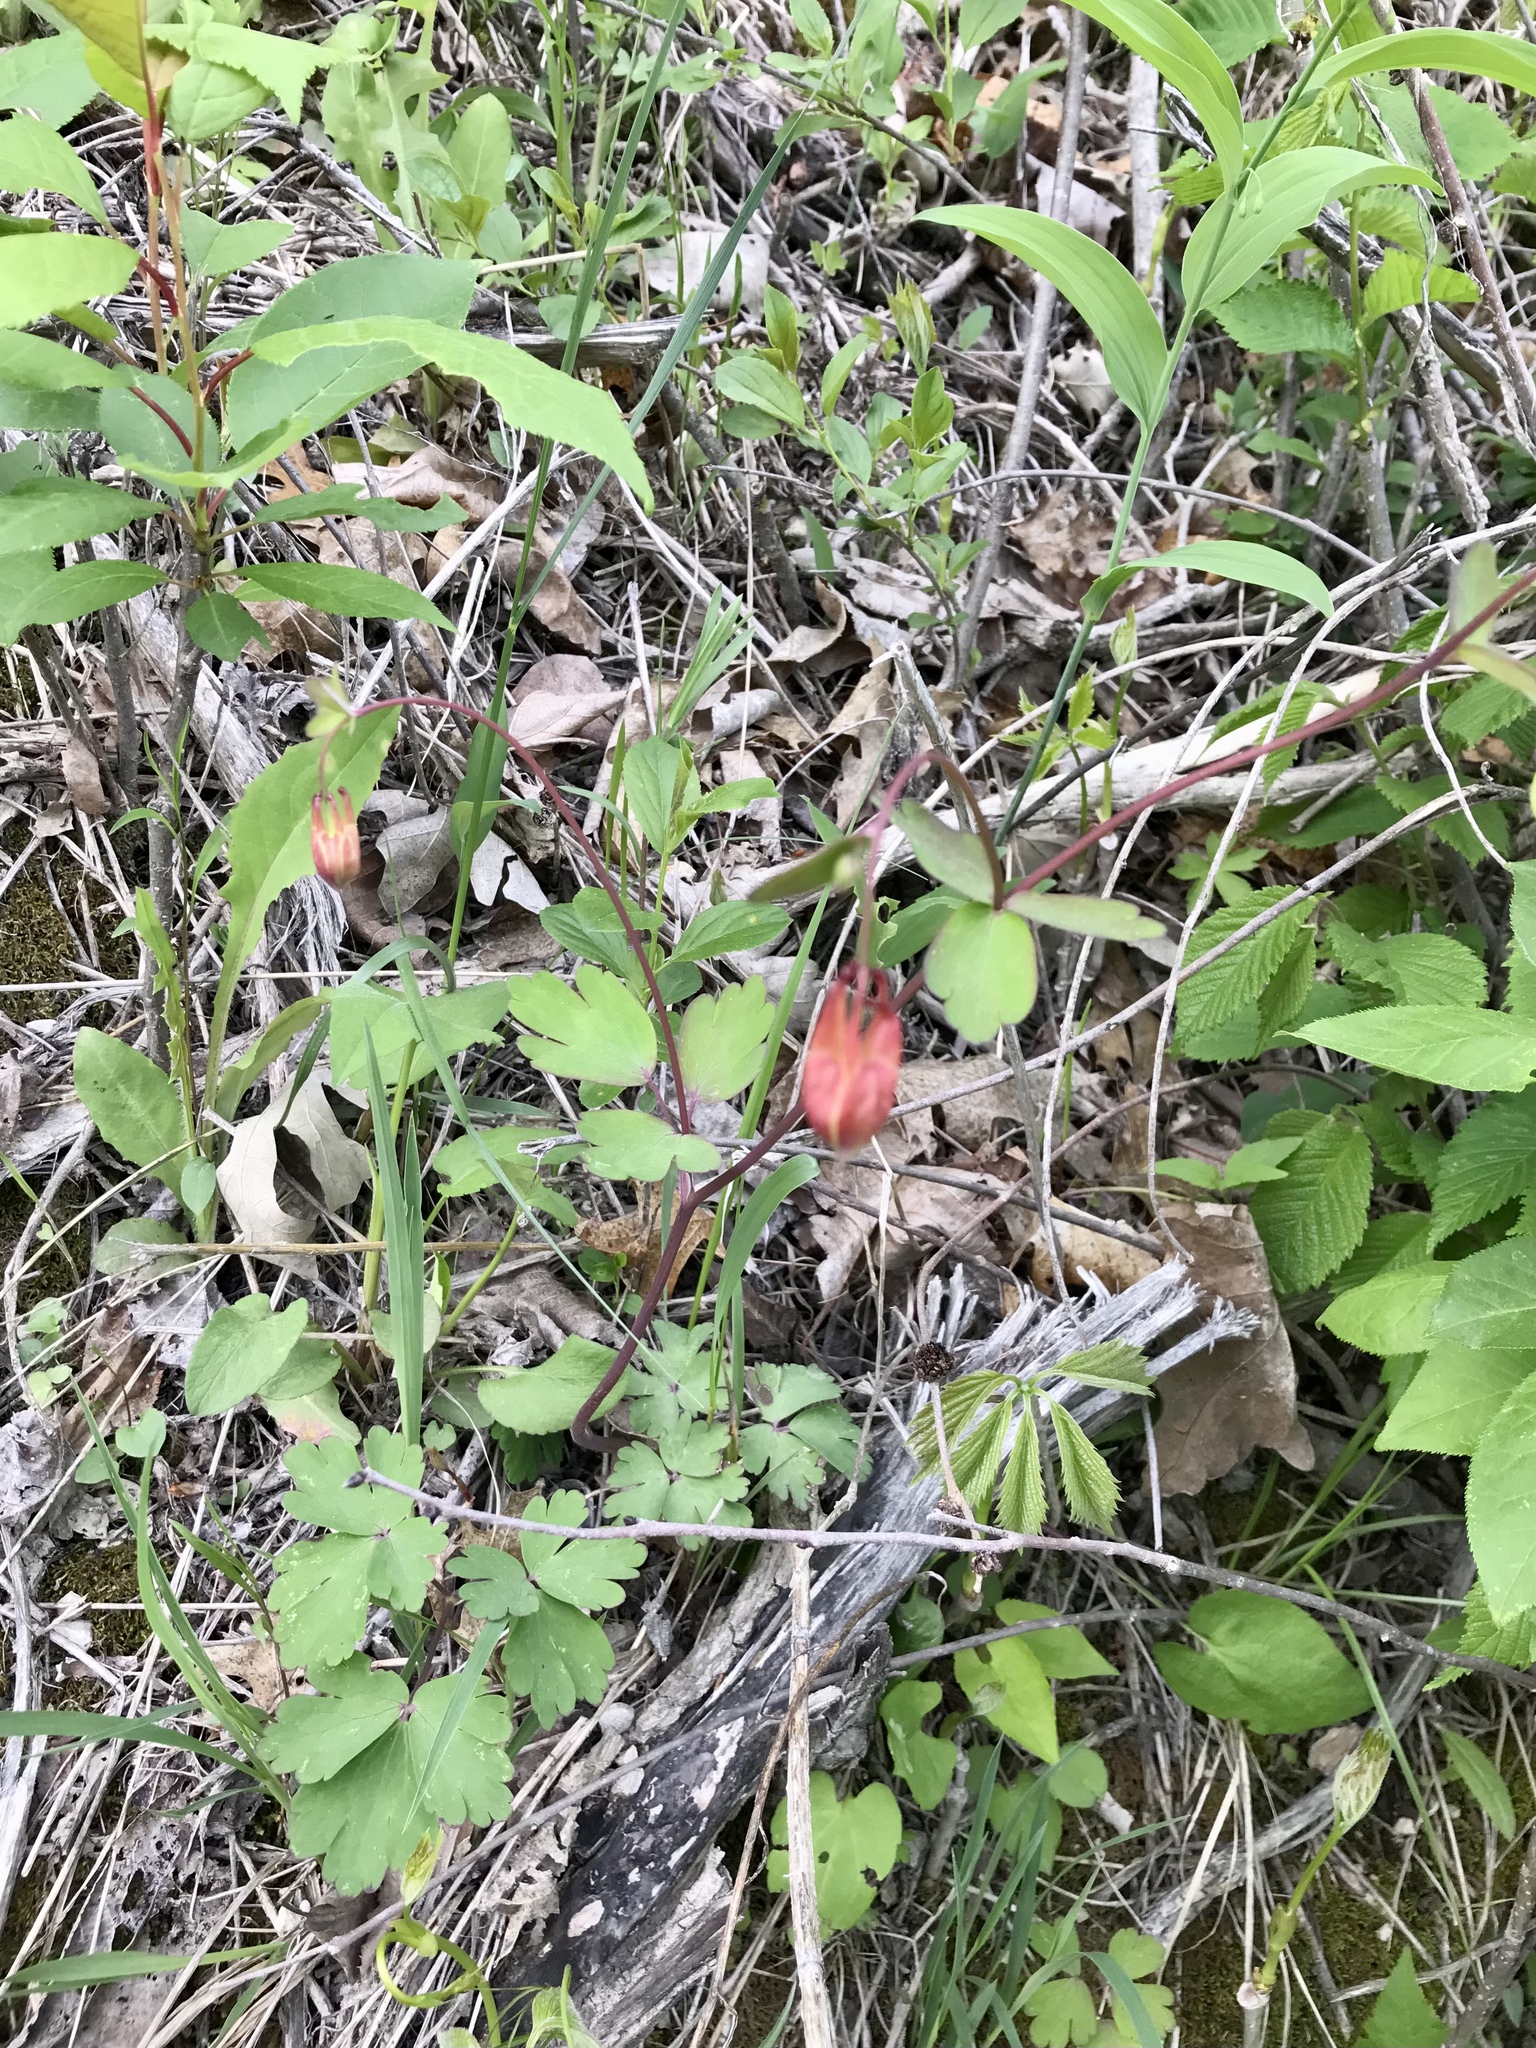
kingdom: Plantae
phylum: Tracheophyta
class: Magnoliopsida
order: Ranunculales
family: Ranunculaceae
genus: Aquilegia
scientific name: Aquilegia canadensis
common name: American columbine
